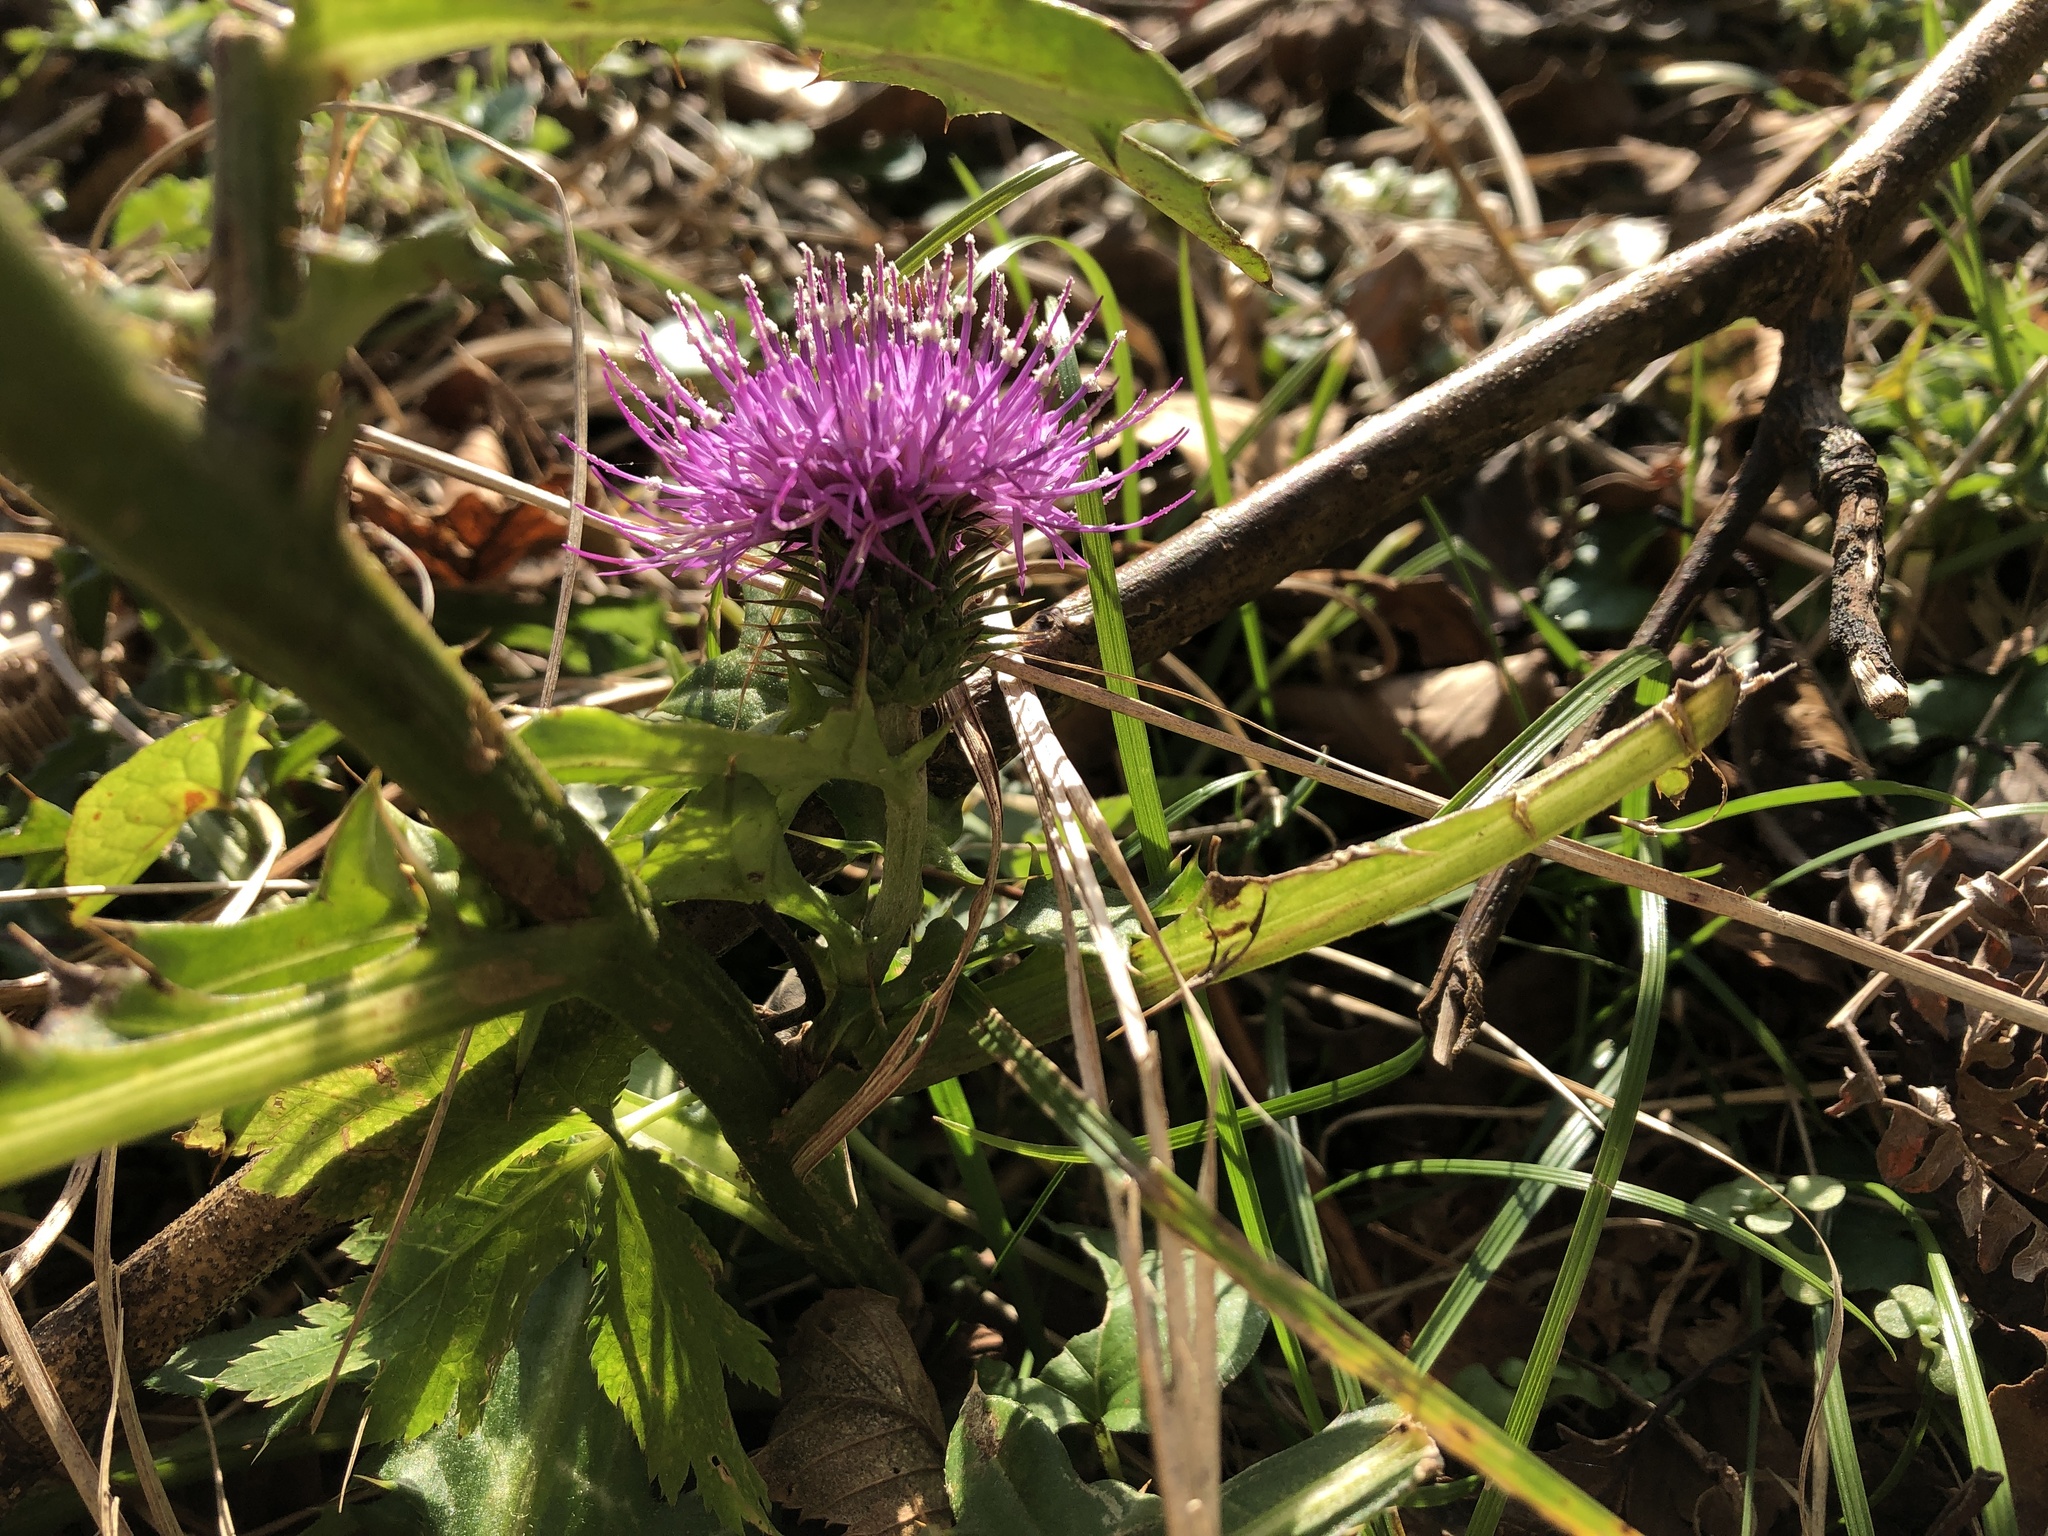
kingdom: Plantae
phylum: Tracheophyta
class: Magnoliopsida
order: Asterales
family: Asteraceae
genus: Cirsium
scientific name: Cirsium nipponicum
